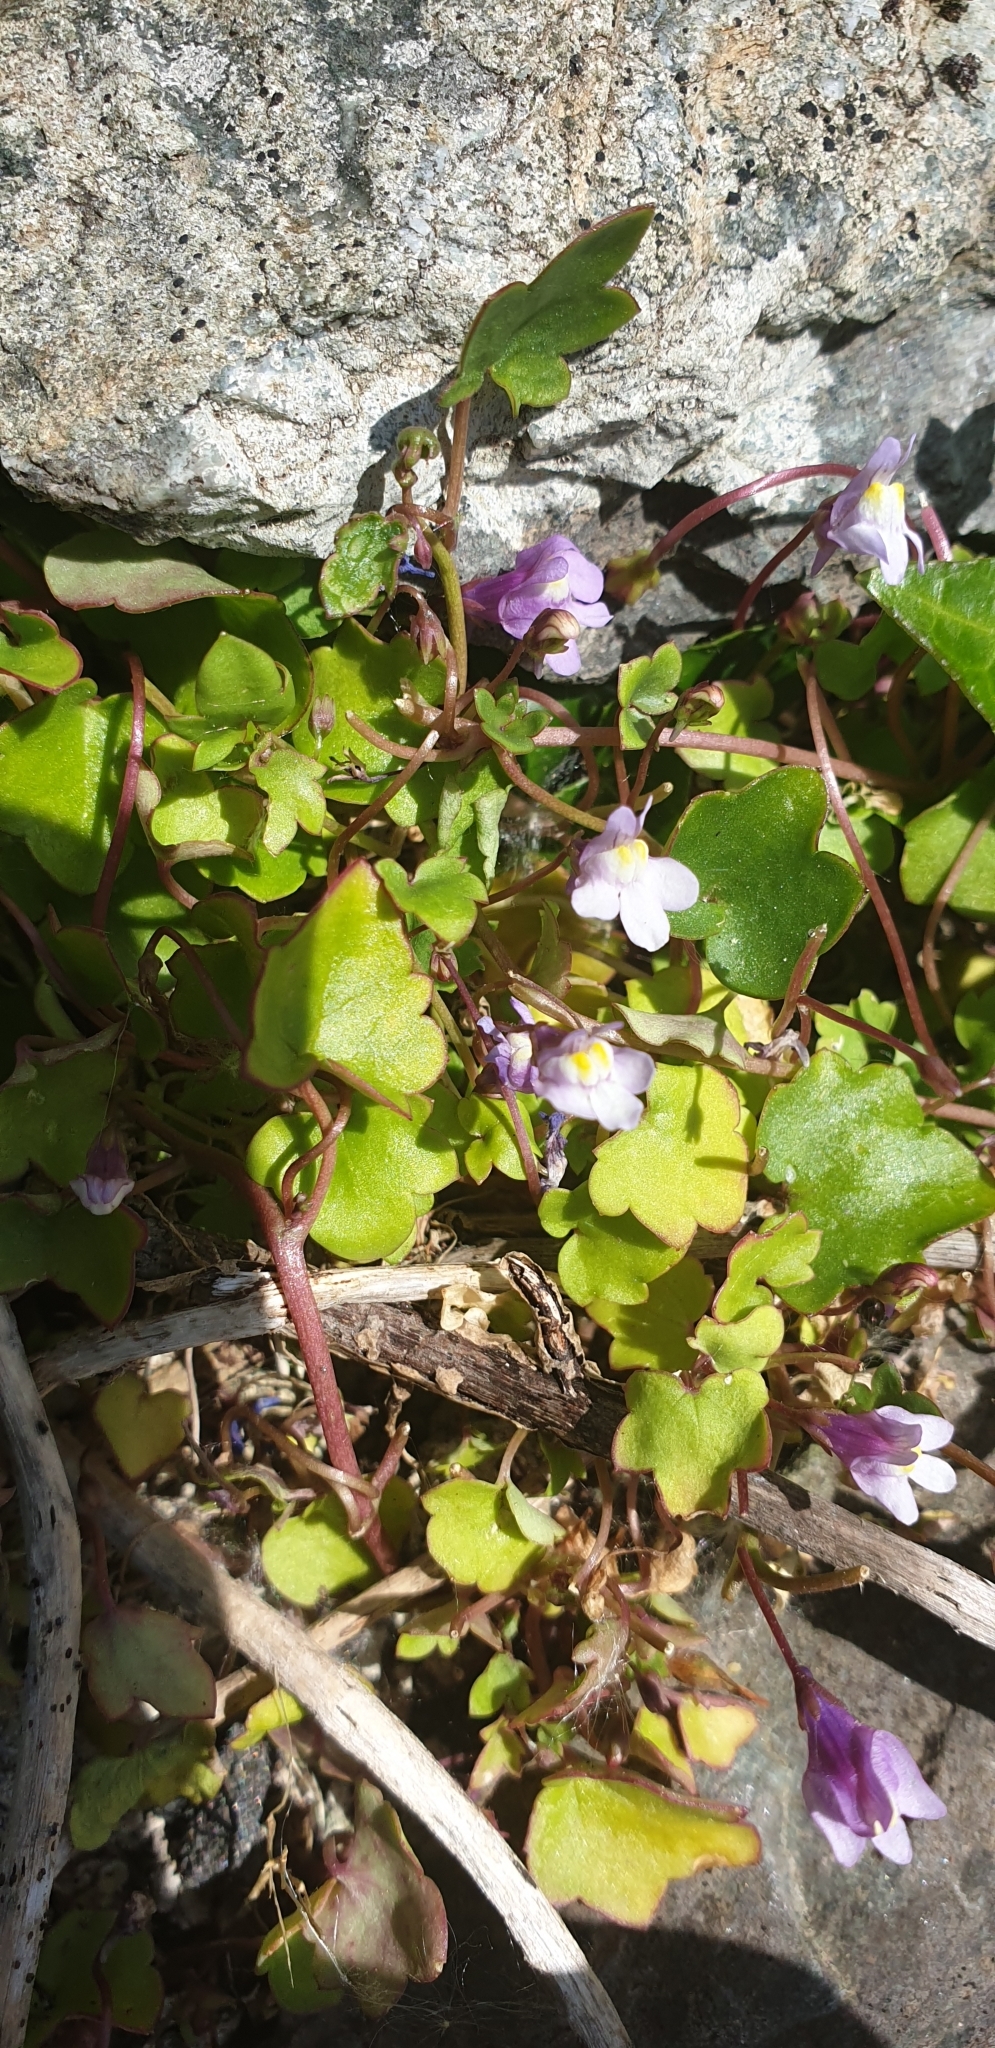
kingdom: Plantae
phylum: Tracheophyta
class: Magnoliopsida
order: Lamiales
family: Plantaginaceae
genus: Cymbalaria
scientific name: Cymbalaria muralis
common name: Ivy-leaved toadflax
